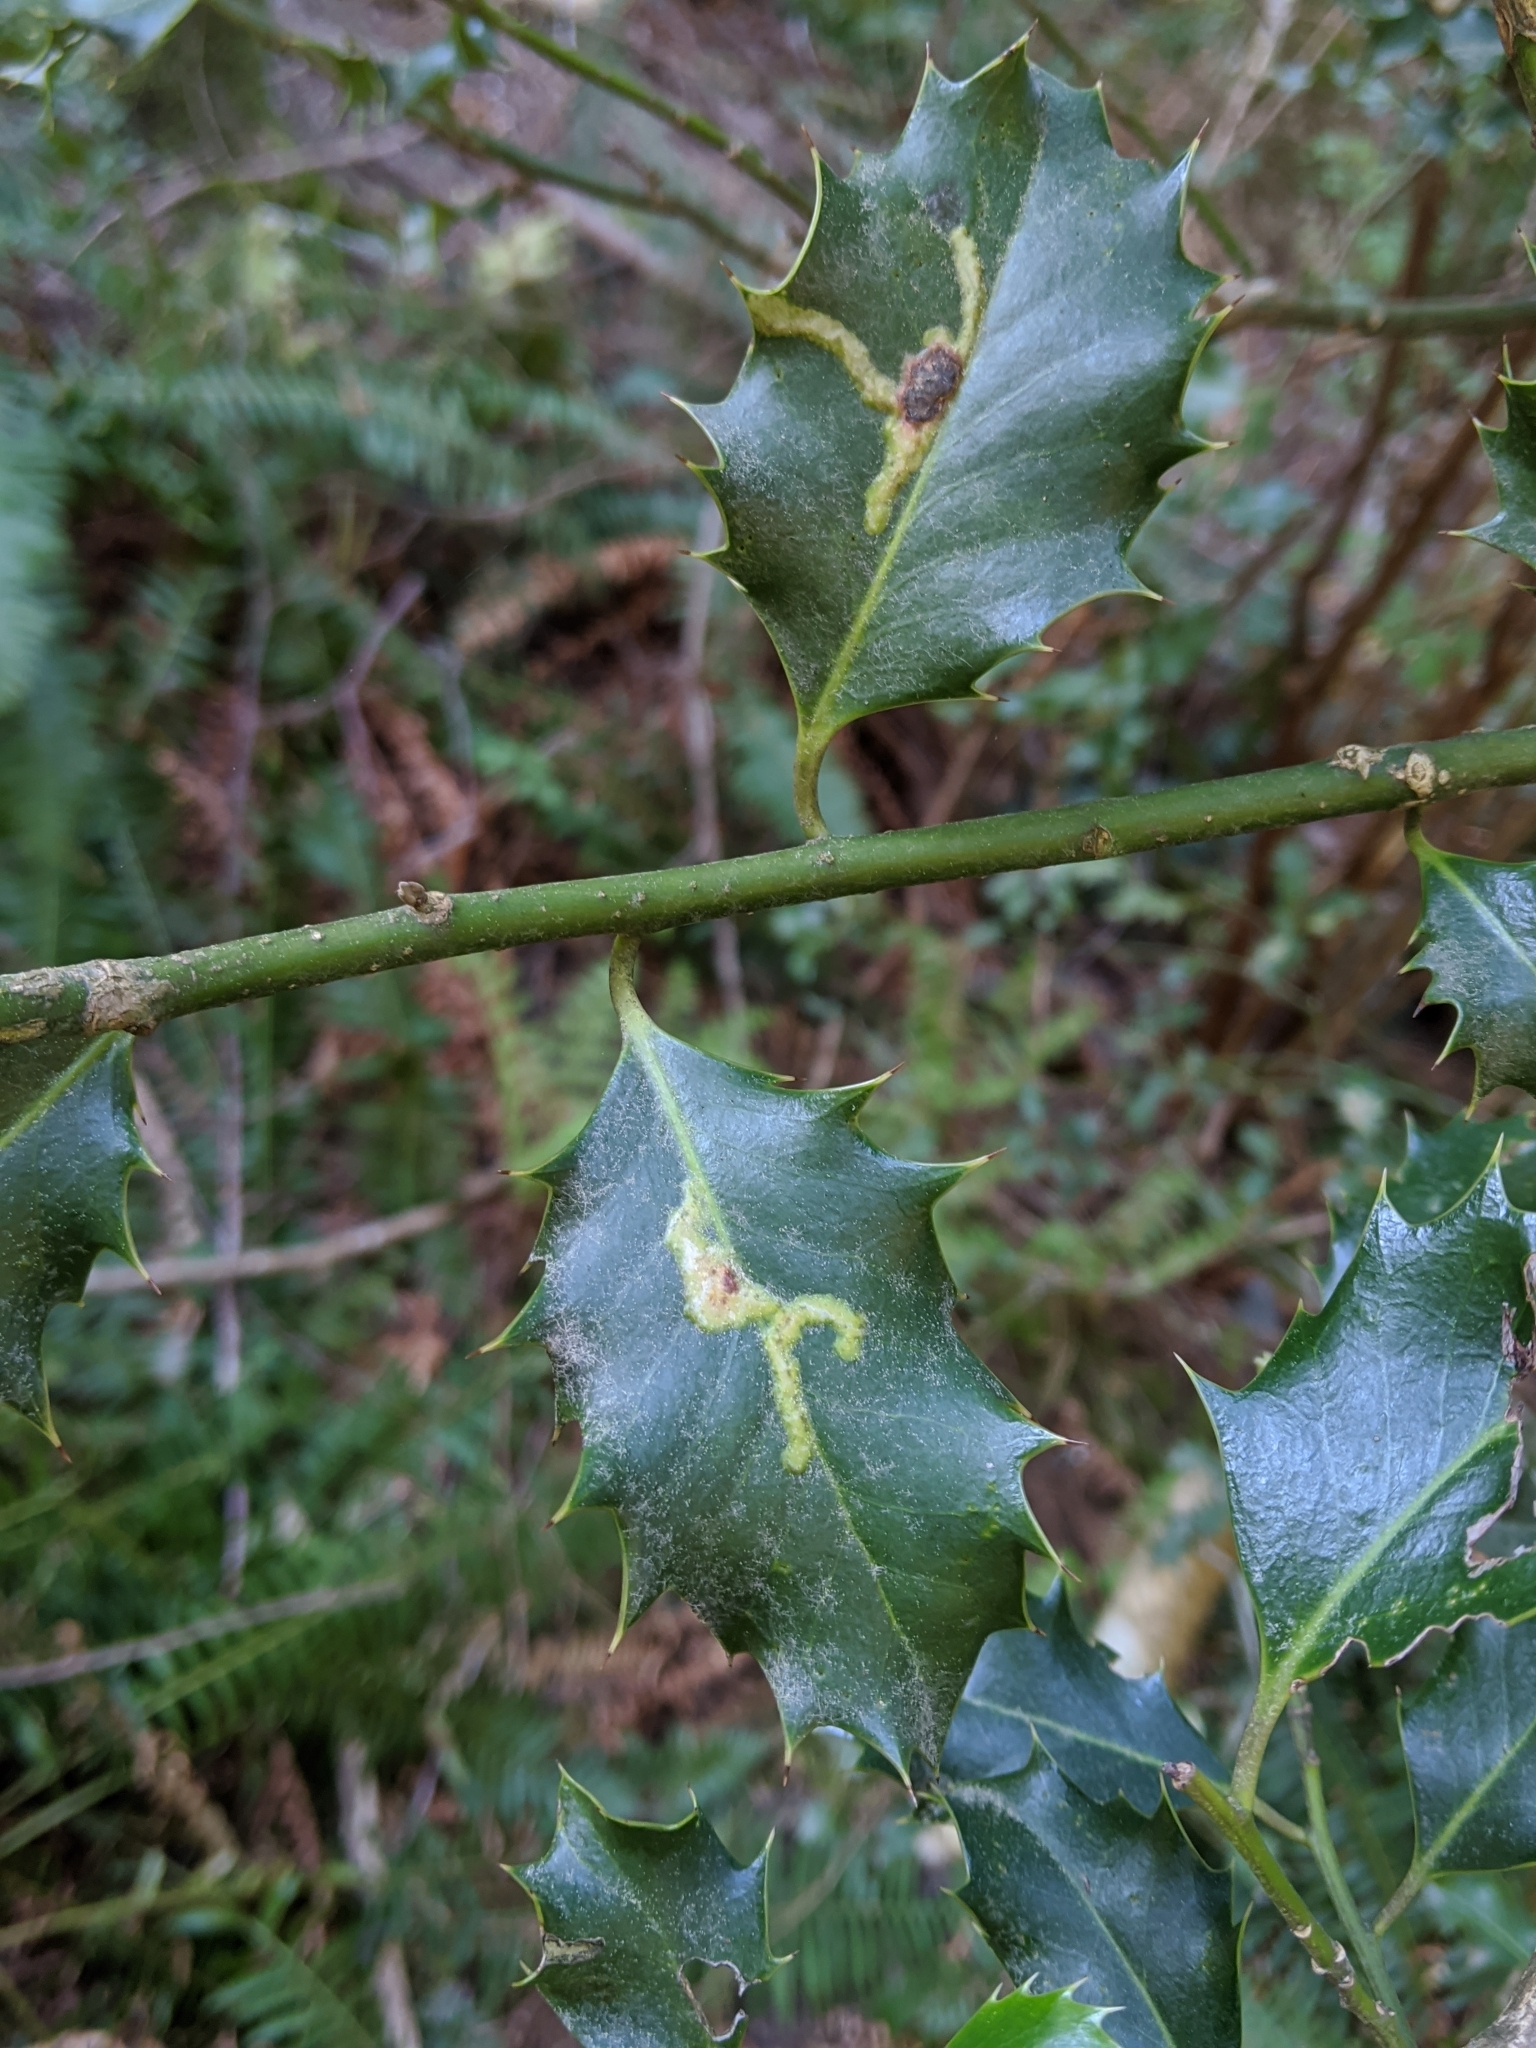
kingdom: Animalia
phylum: Arthropoda
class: Insecta
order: Diptera
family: Agromyzidae
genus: Phytomyza
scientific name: Phytomyza ilicis
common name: Holly leafminer
